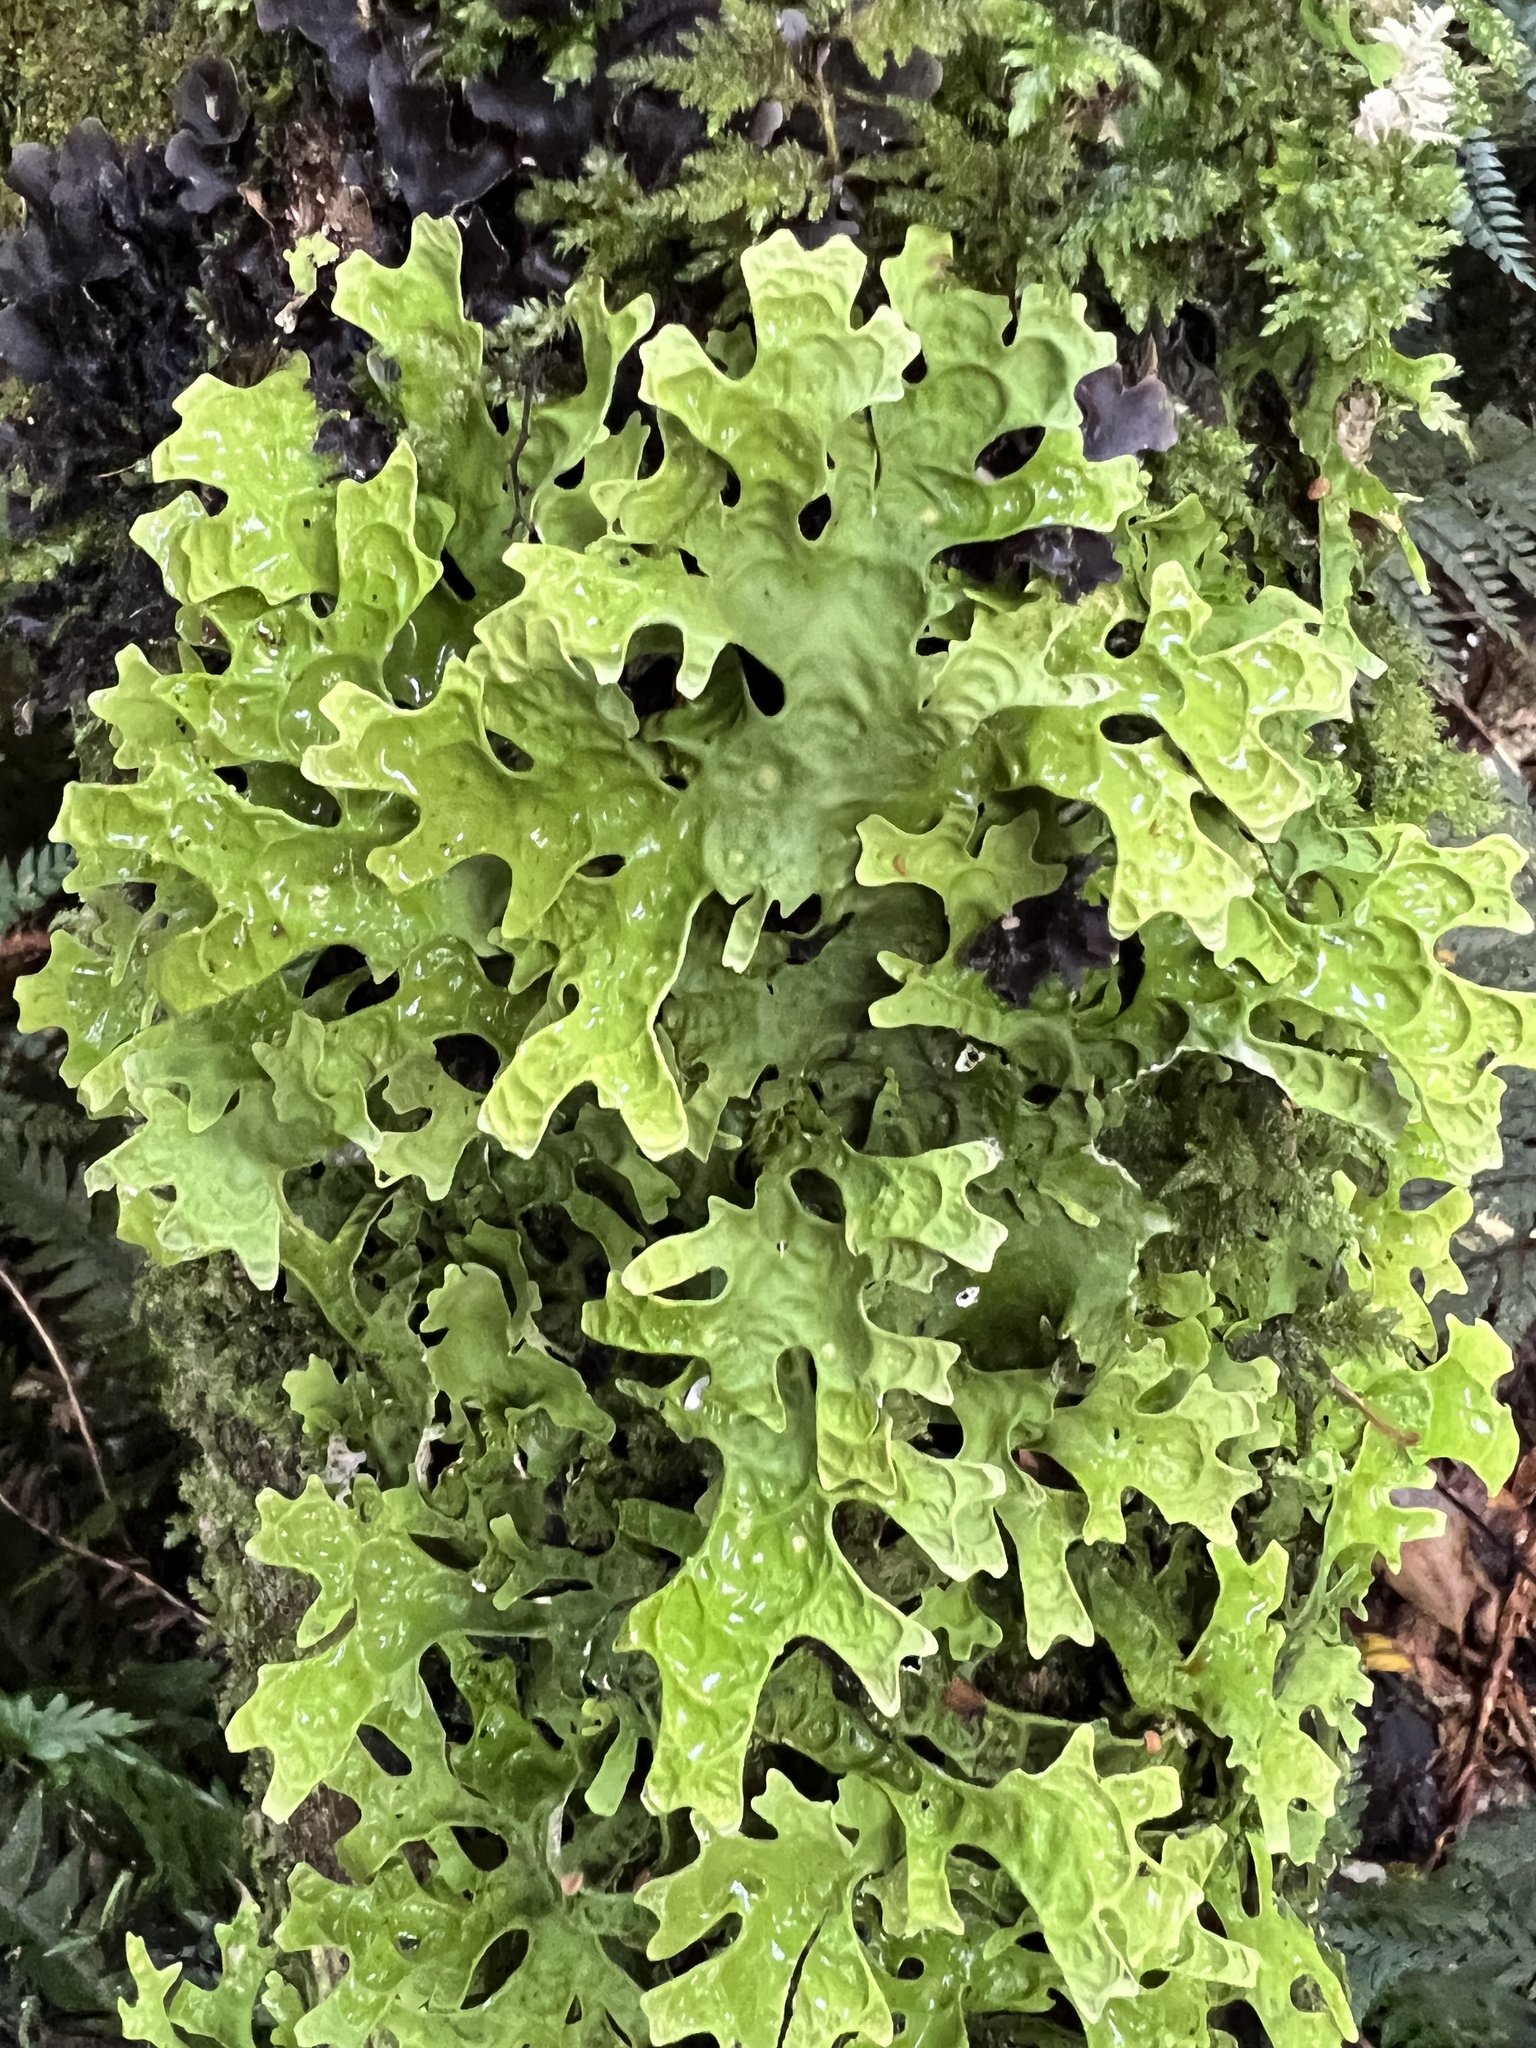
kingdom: Fungi
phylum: Ascomycota
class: Lecanoromycetes
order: Peltigerales
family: Lobariaceae
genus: Pseudocyphellaria
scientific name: Pseudocyphellaria rufovirescens
